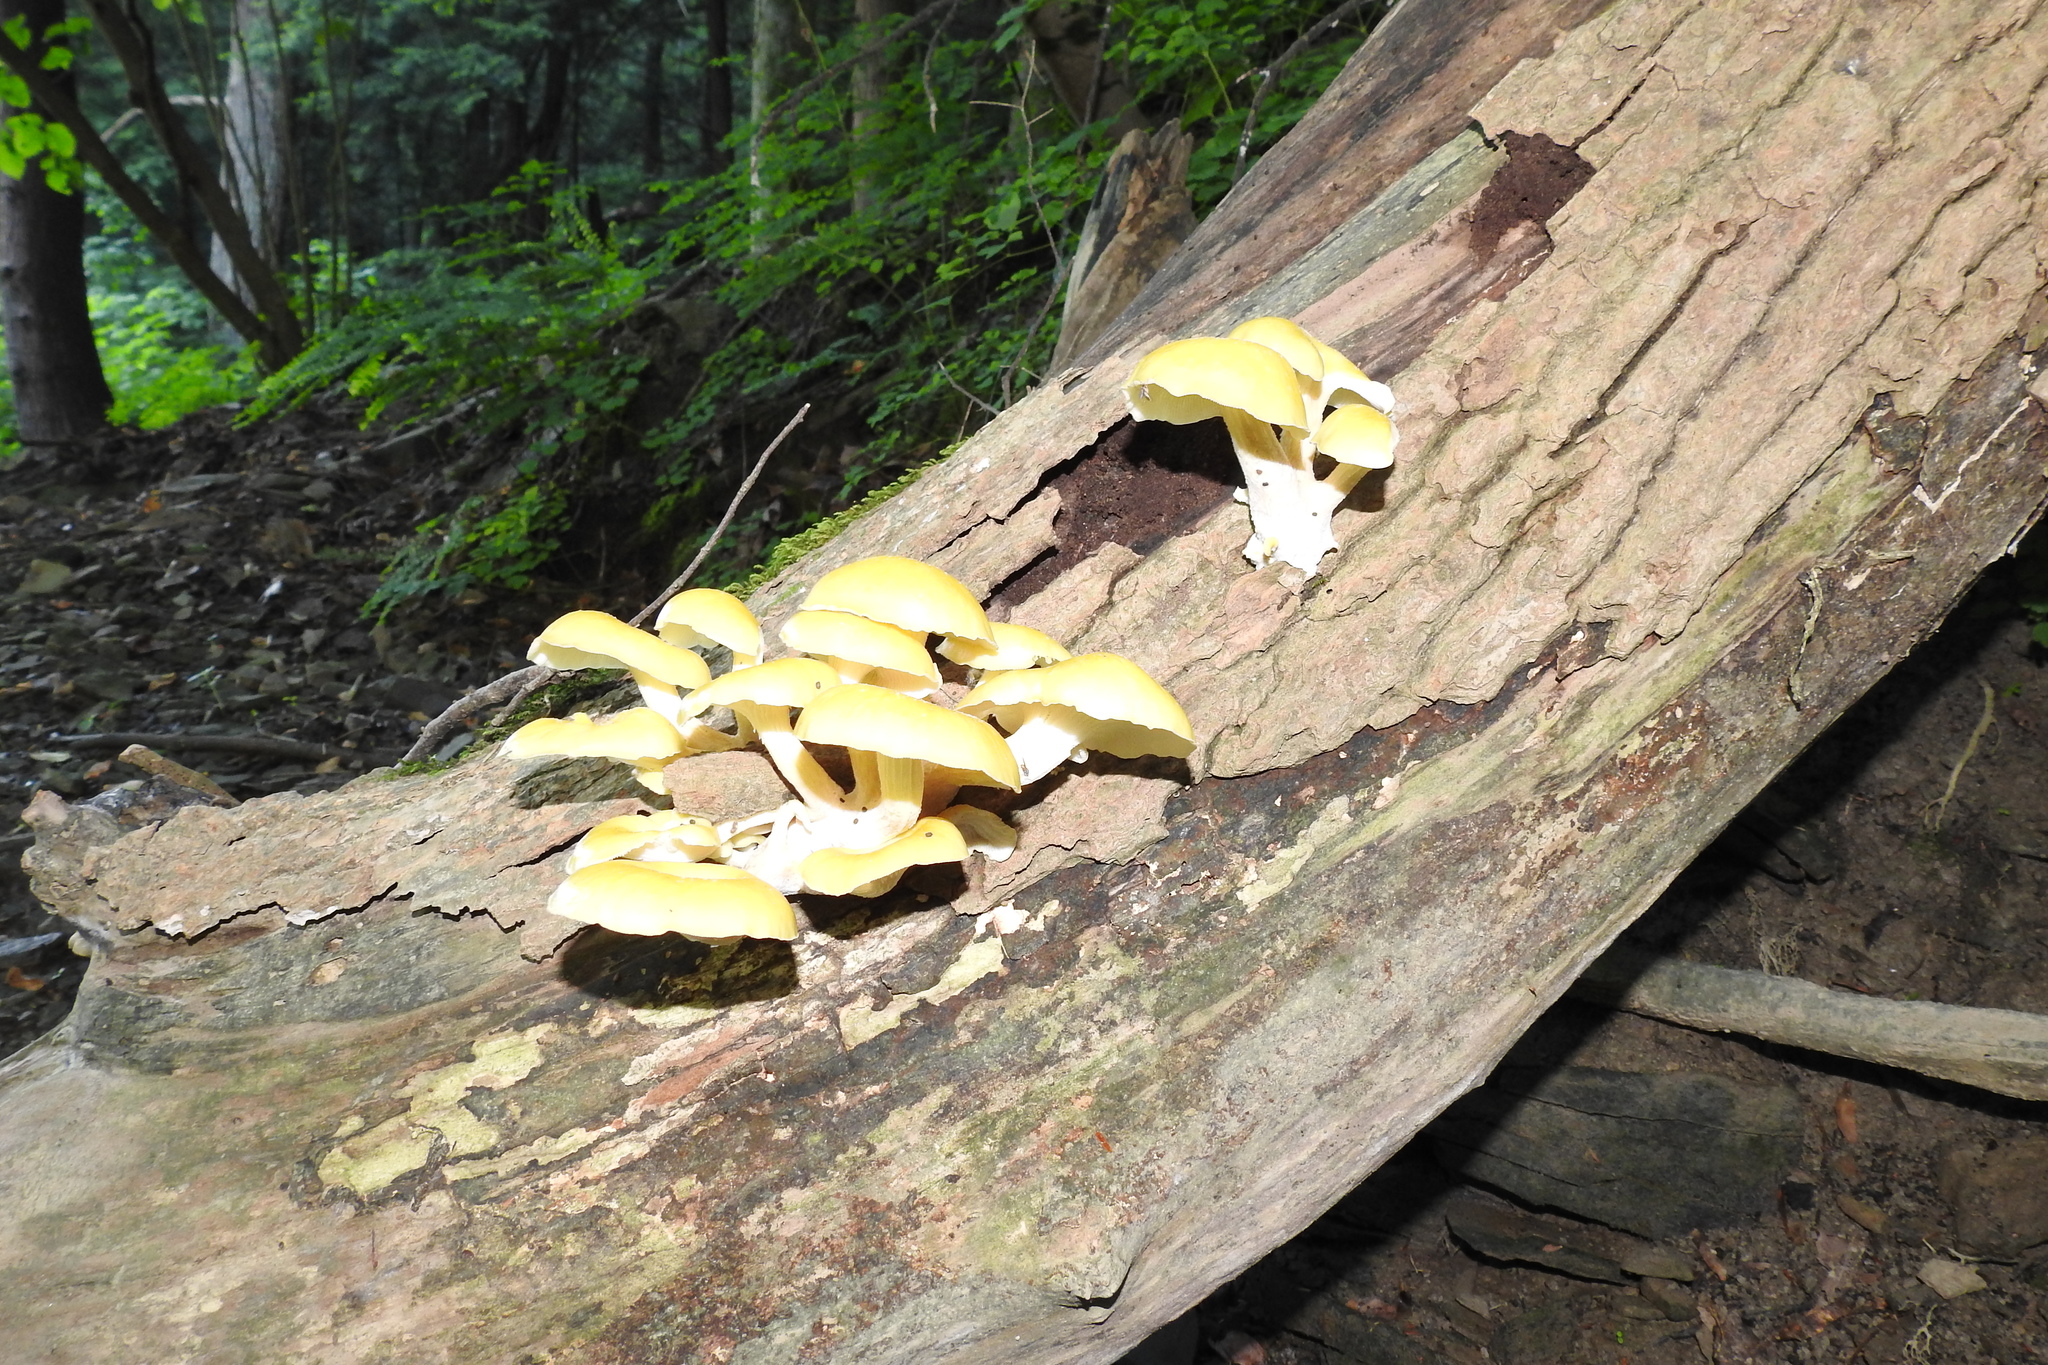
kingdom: Fungi
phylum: Basidiomycota
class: Agaricomycetes
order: Agaricales
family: Pleurotaceae
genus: Pleurotus
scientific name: Pleurotus citrinopileatus
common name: Golden oyster mushroom
